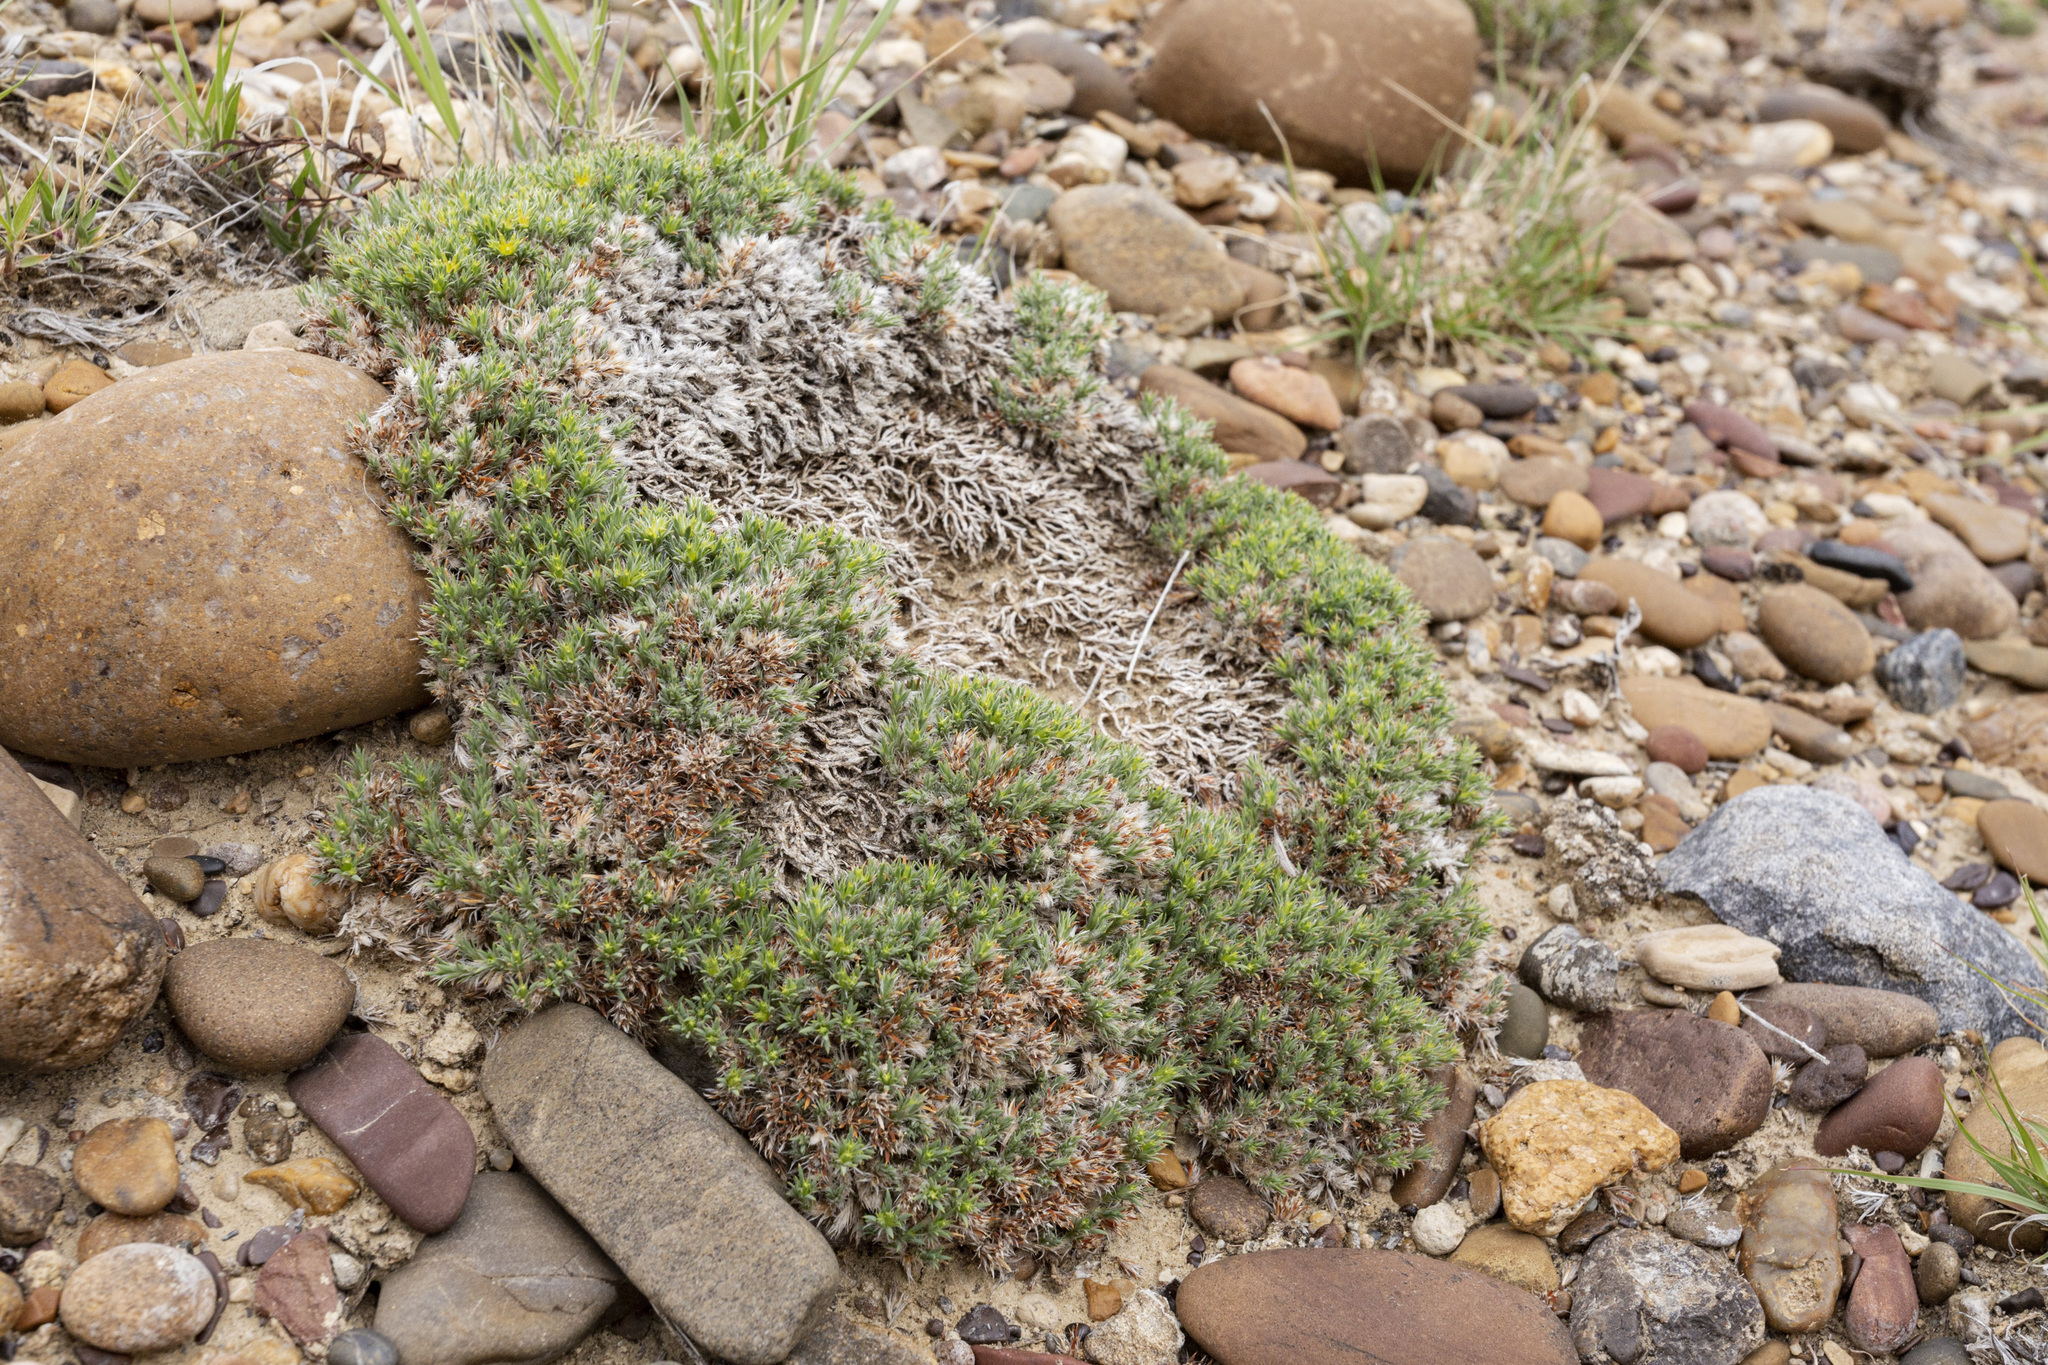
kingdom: Plantae
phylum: Tracheophyta
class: Magnoliopsida
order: Caryophyllales
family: Caryophyllaceae
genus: Paronychia
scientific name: Paronychia sessiliflora
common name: Creeping nailwort
